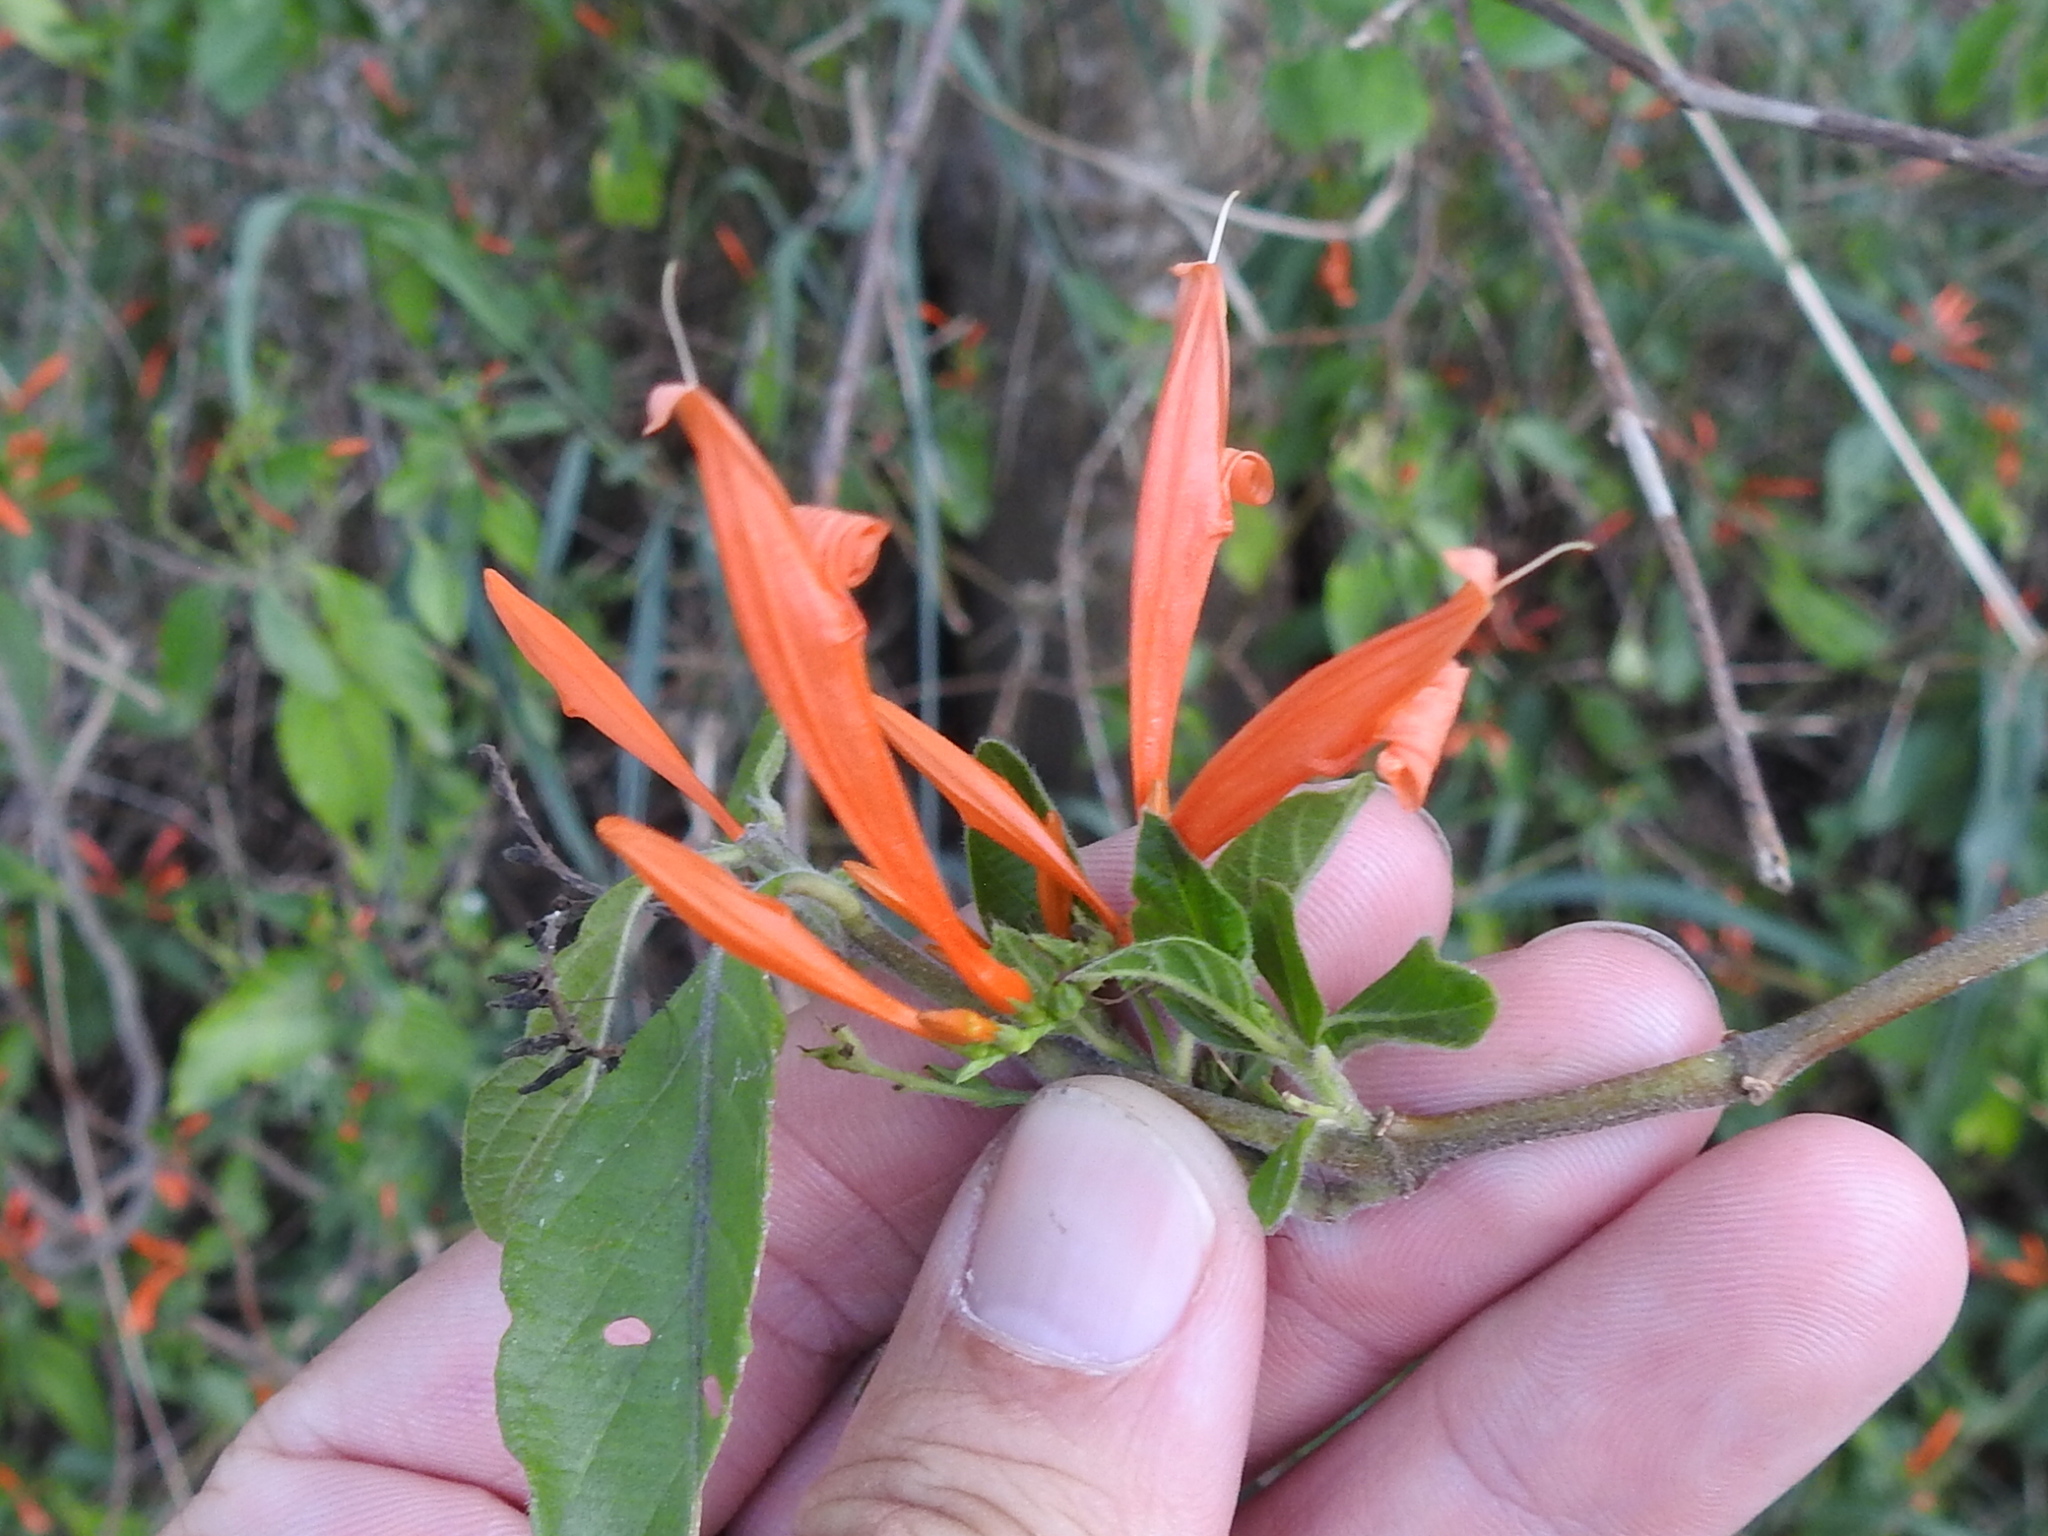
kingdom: Plantae
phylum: Tracheophyta
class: Magnoliopsida
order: Lamiales
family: Acanthaceae
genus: Justicia
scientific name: Justicia spicigera
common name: Mohintli
